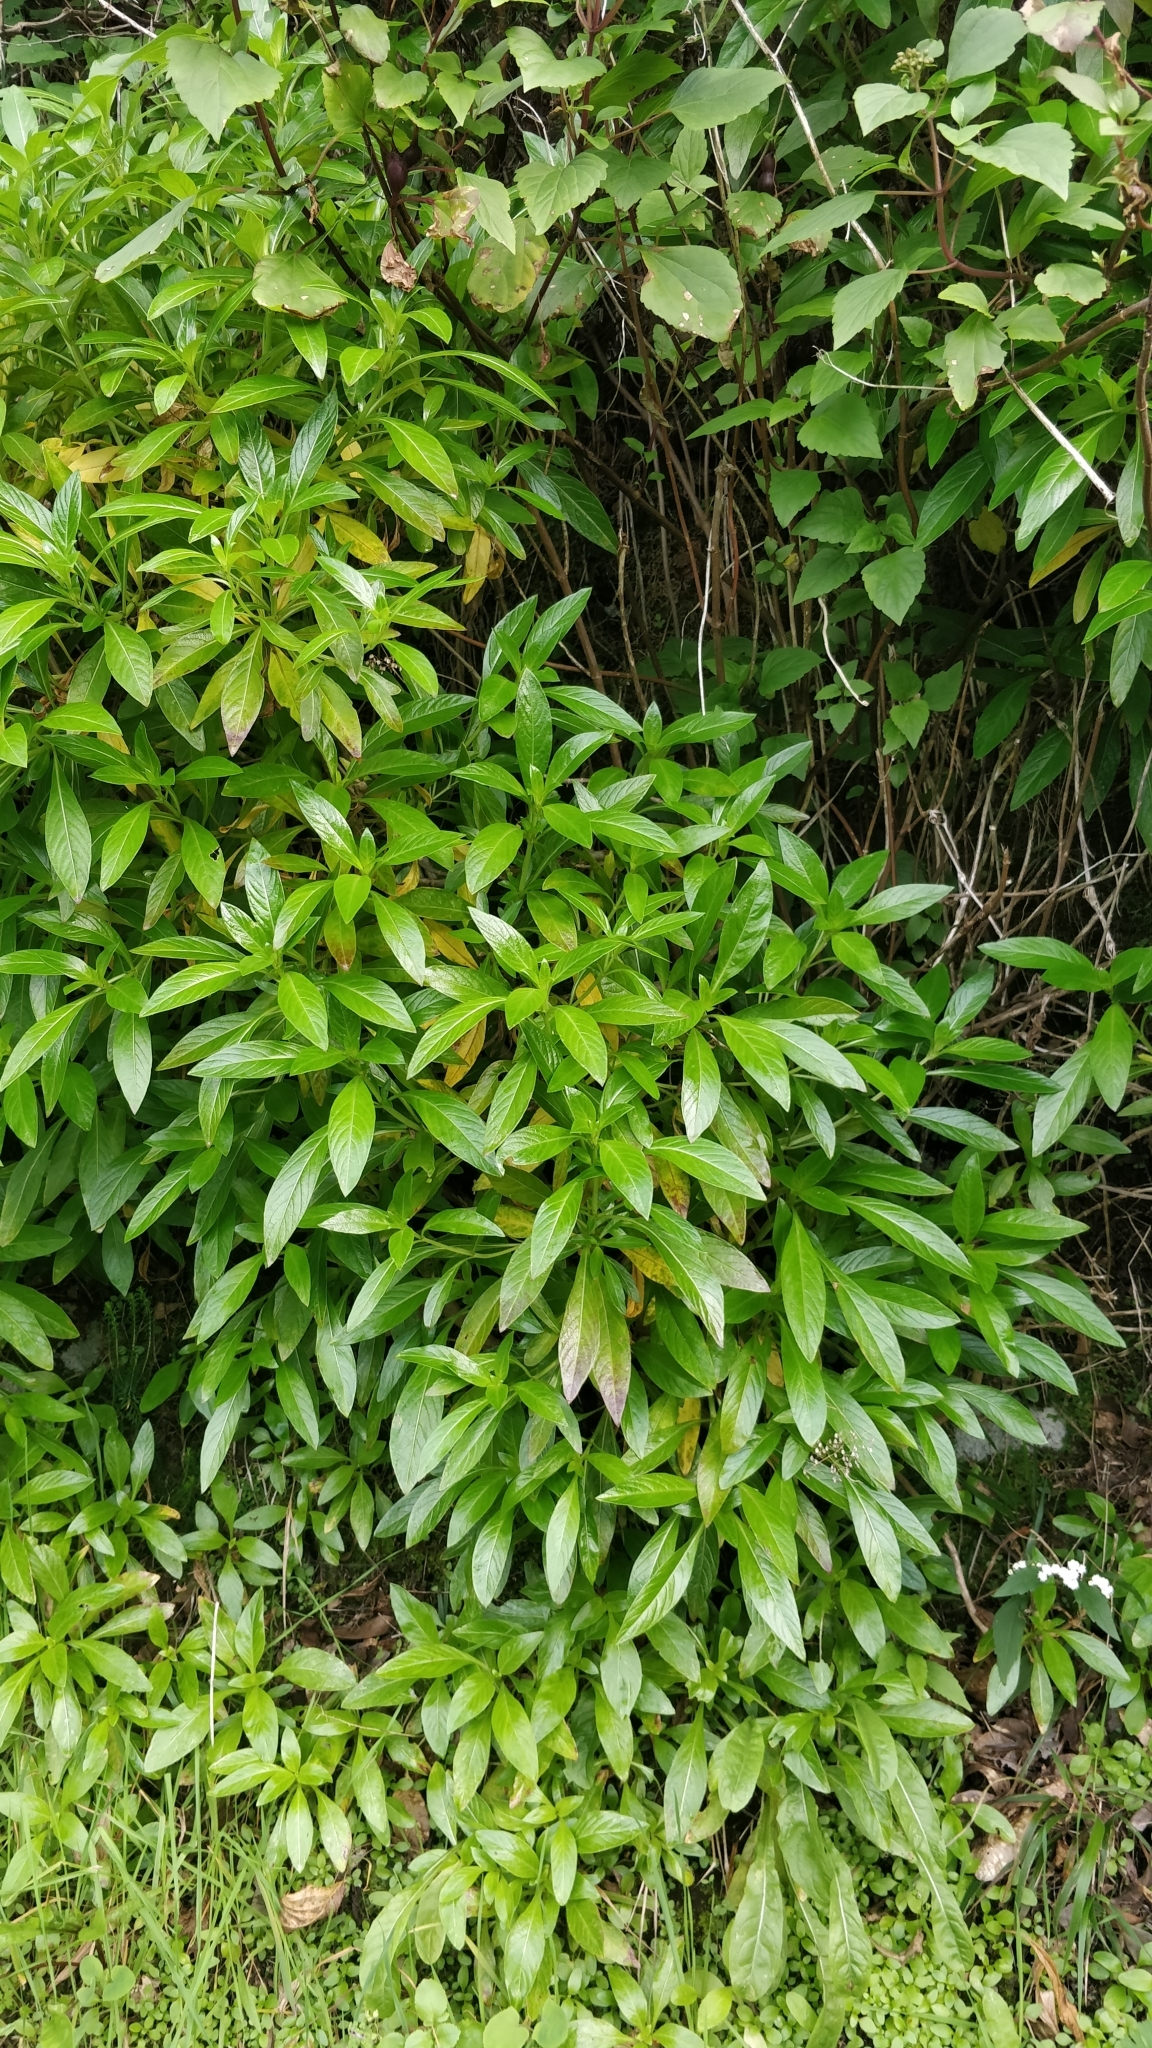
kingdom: Plantae
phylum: Tracheophyta
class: Magnoliopsida
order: Gentianales
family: Rubiaceae
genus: Phyllis
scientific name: Phyllis nobla
